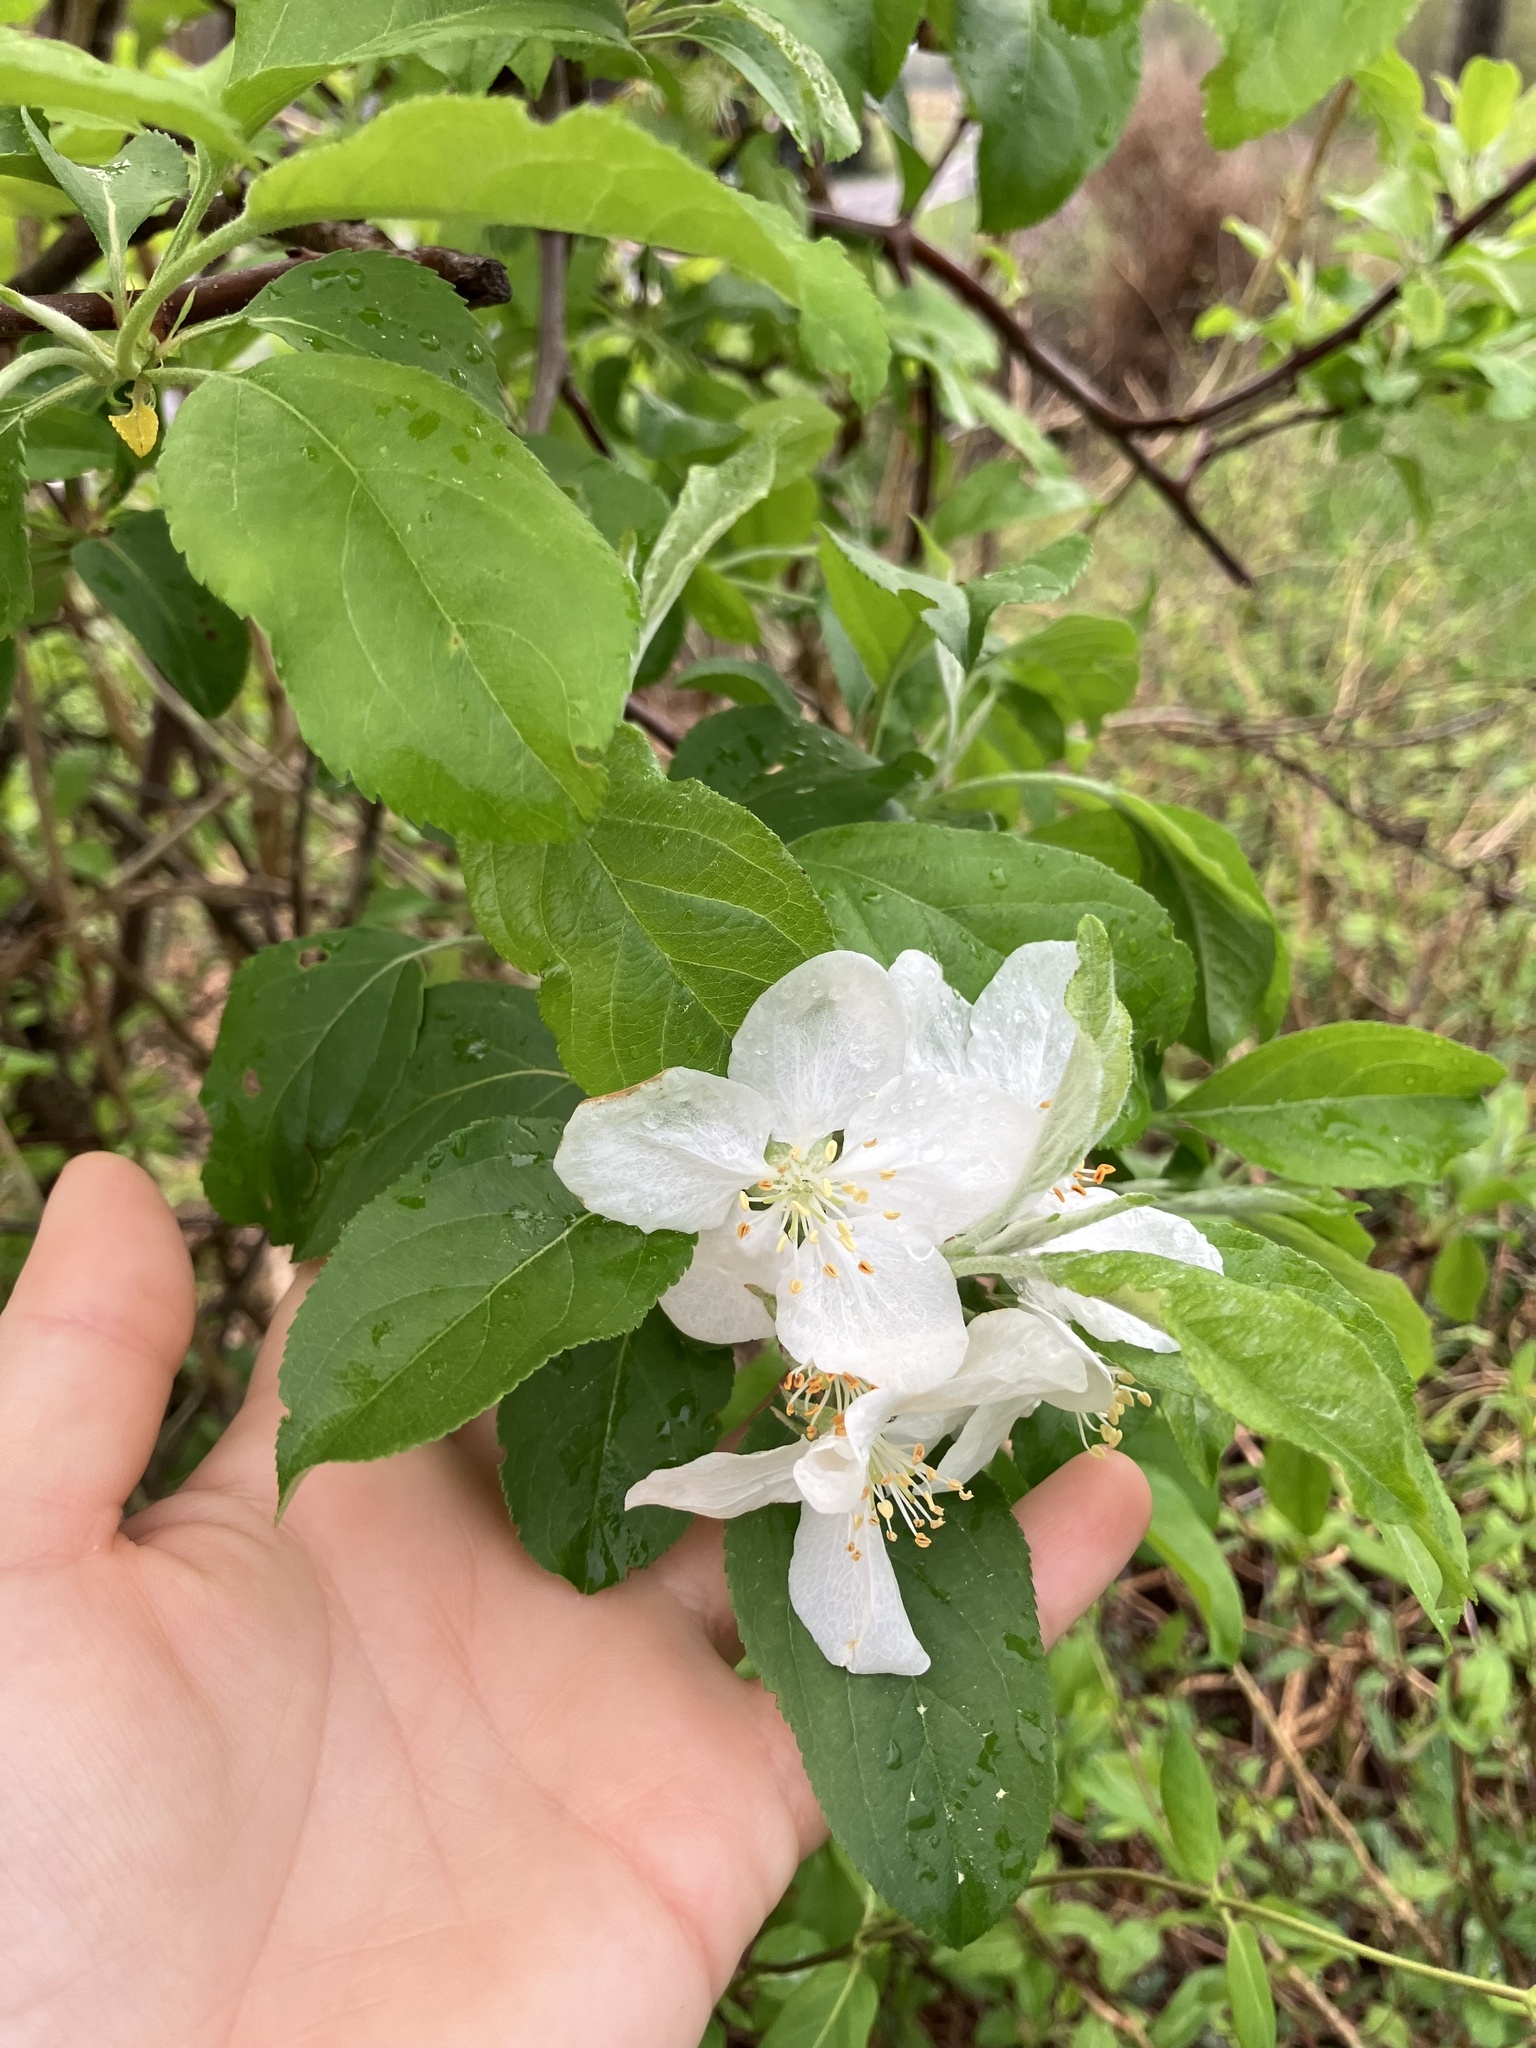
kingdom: Plantae
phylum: Tracheophyta
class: Magnoliopsida
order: Rosales
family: Rosaceae
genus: Malus
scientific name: Malus domestica
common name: Apple
